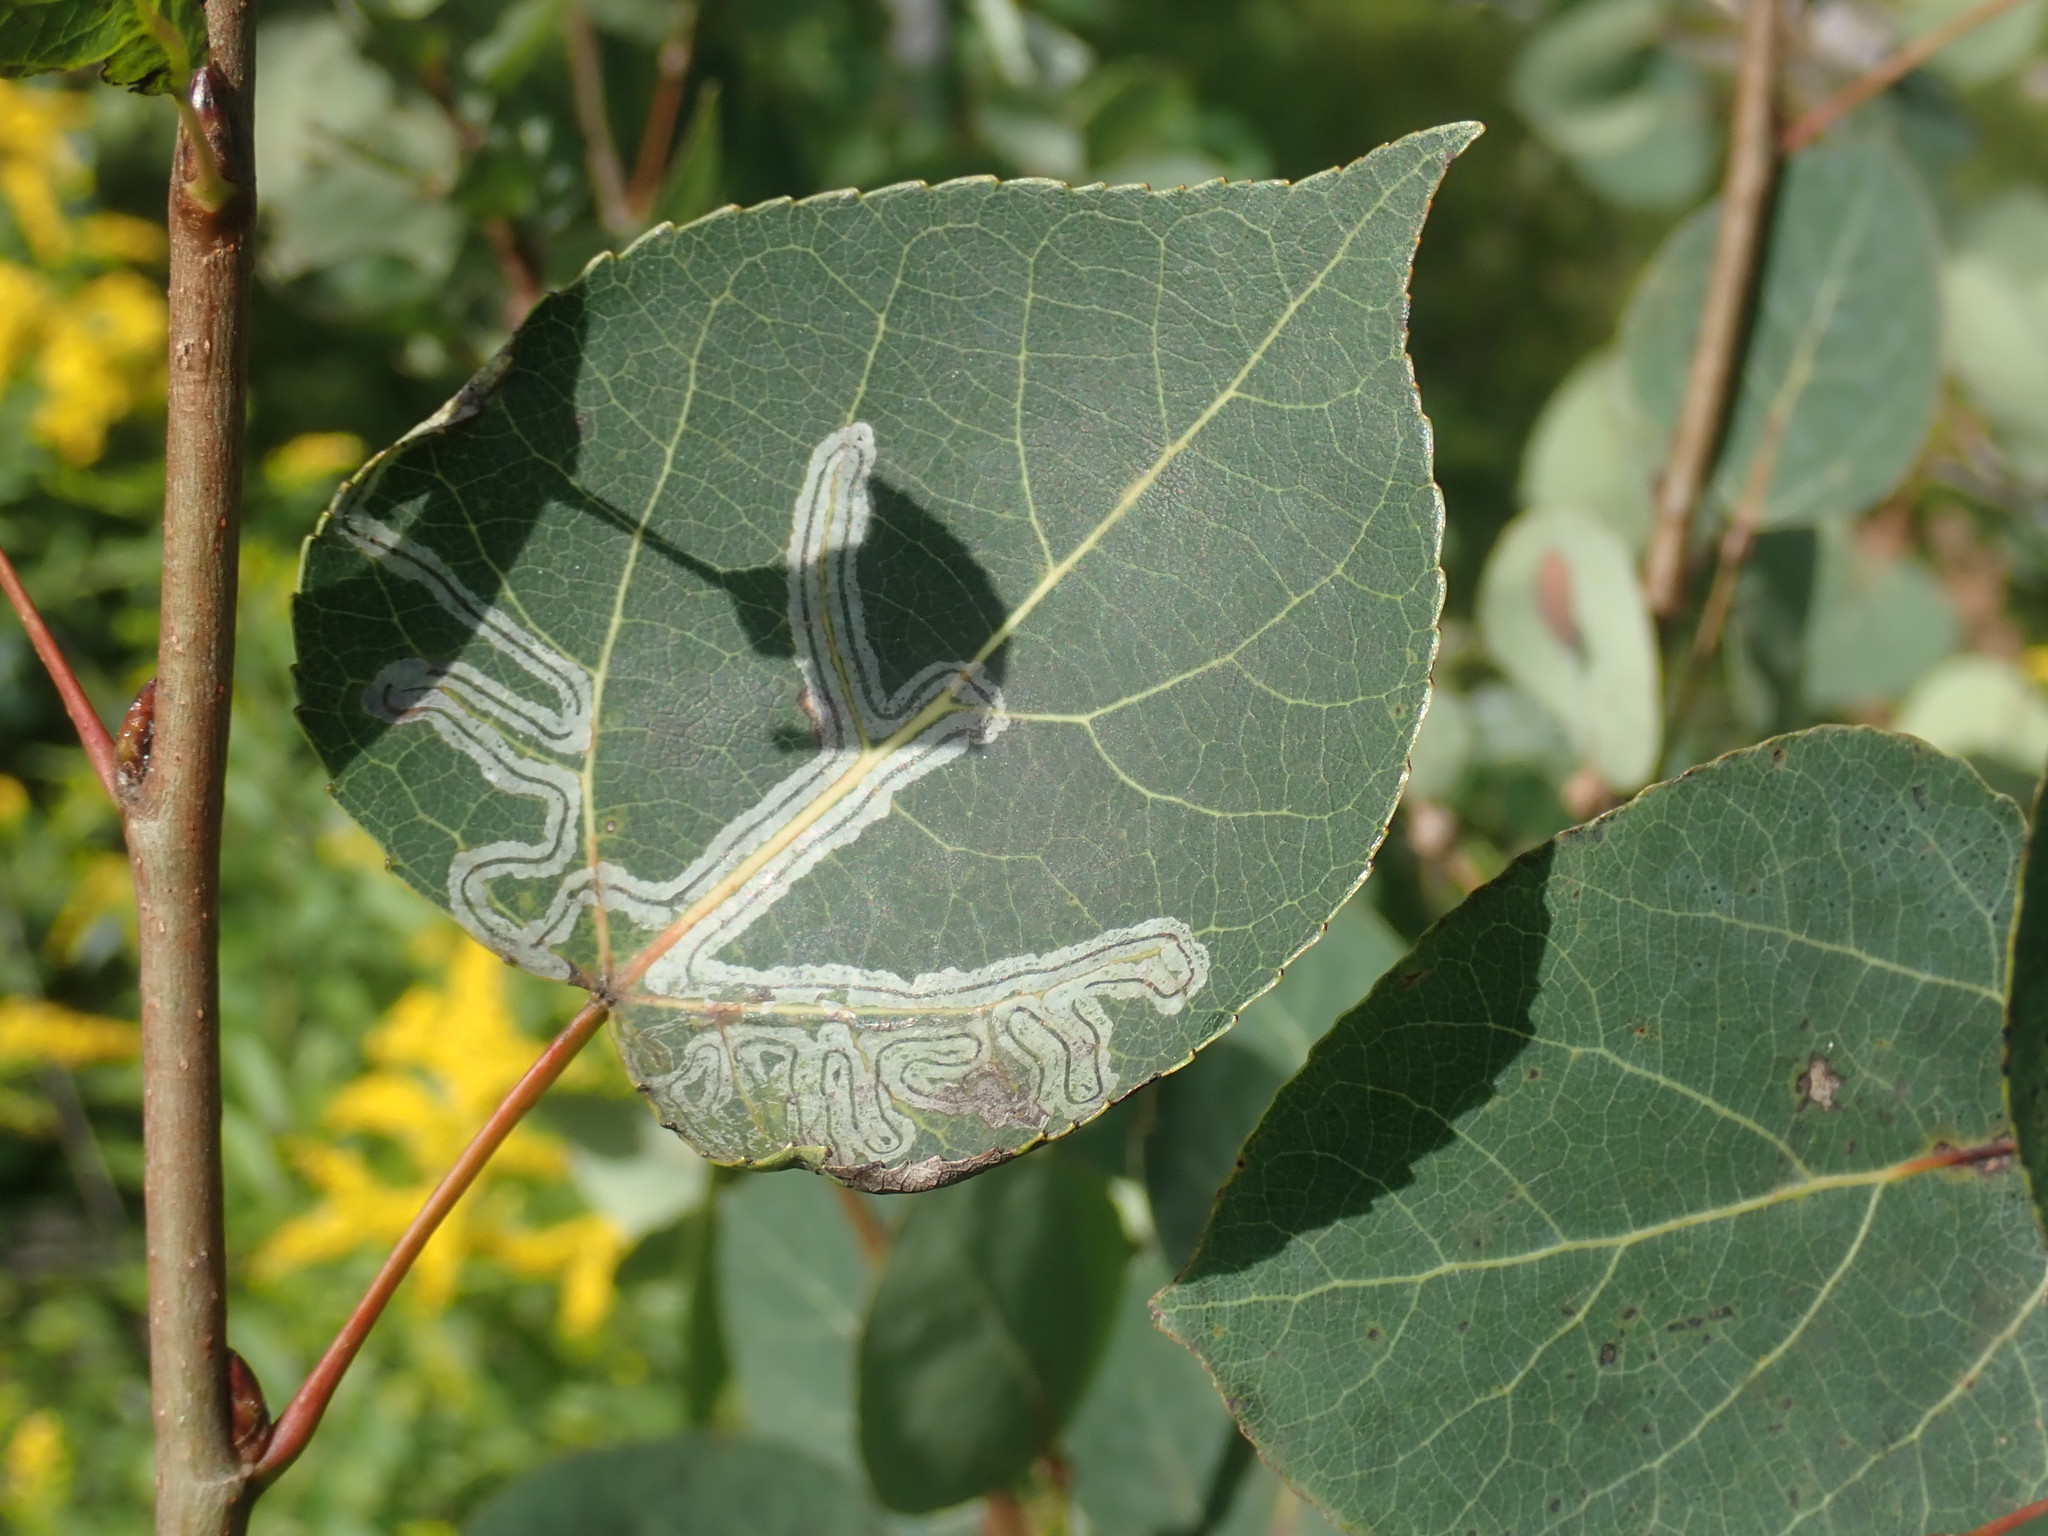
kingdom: Animalia
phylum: Arthropoda
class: Insecta
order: Lepidoptera
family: Gracillariidae
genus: Phyllocnistis
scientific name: Phyllocnistis populiella
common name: Aspen serpentine leafminer moth
